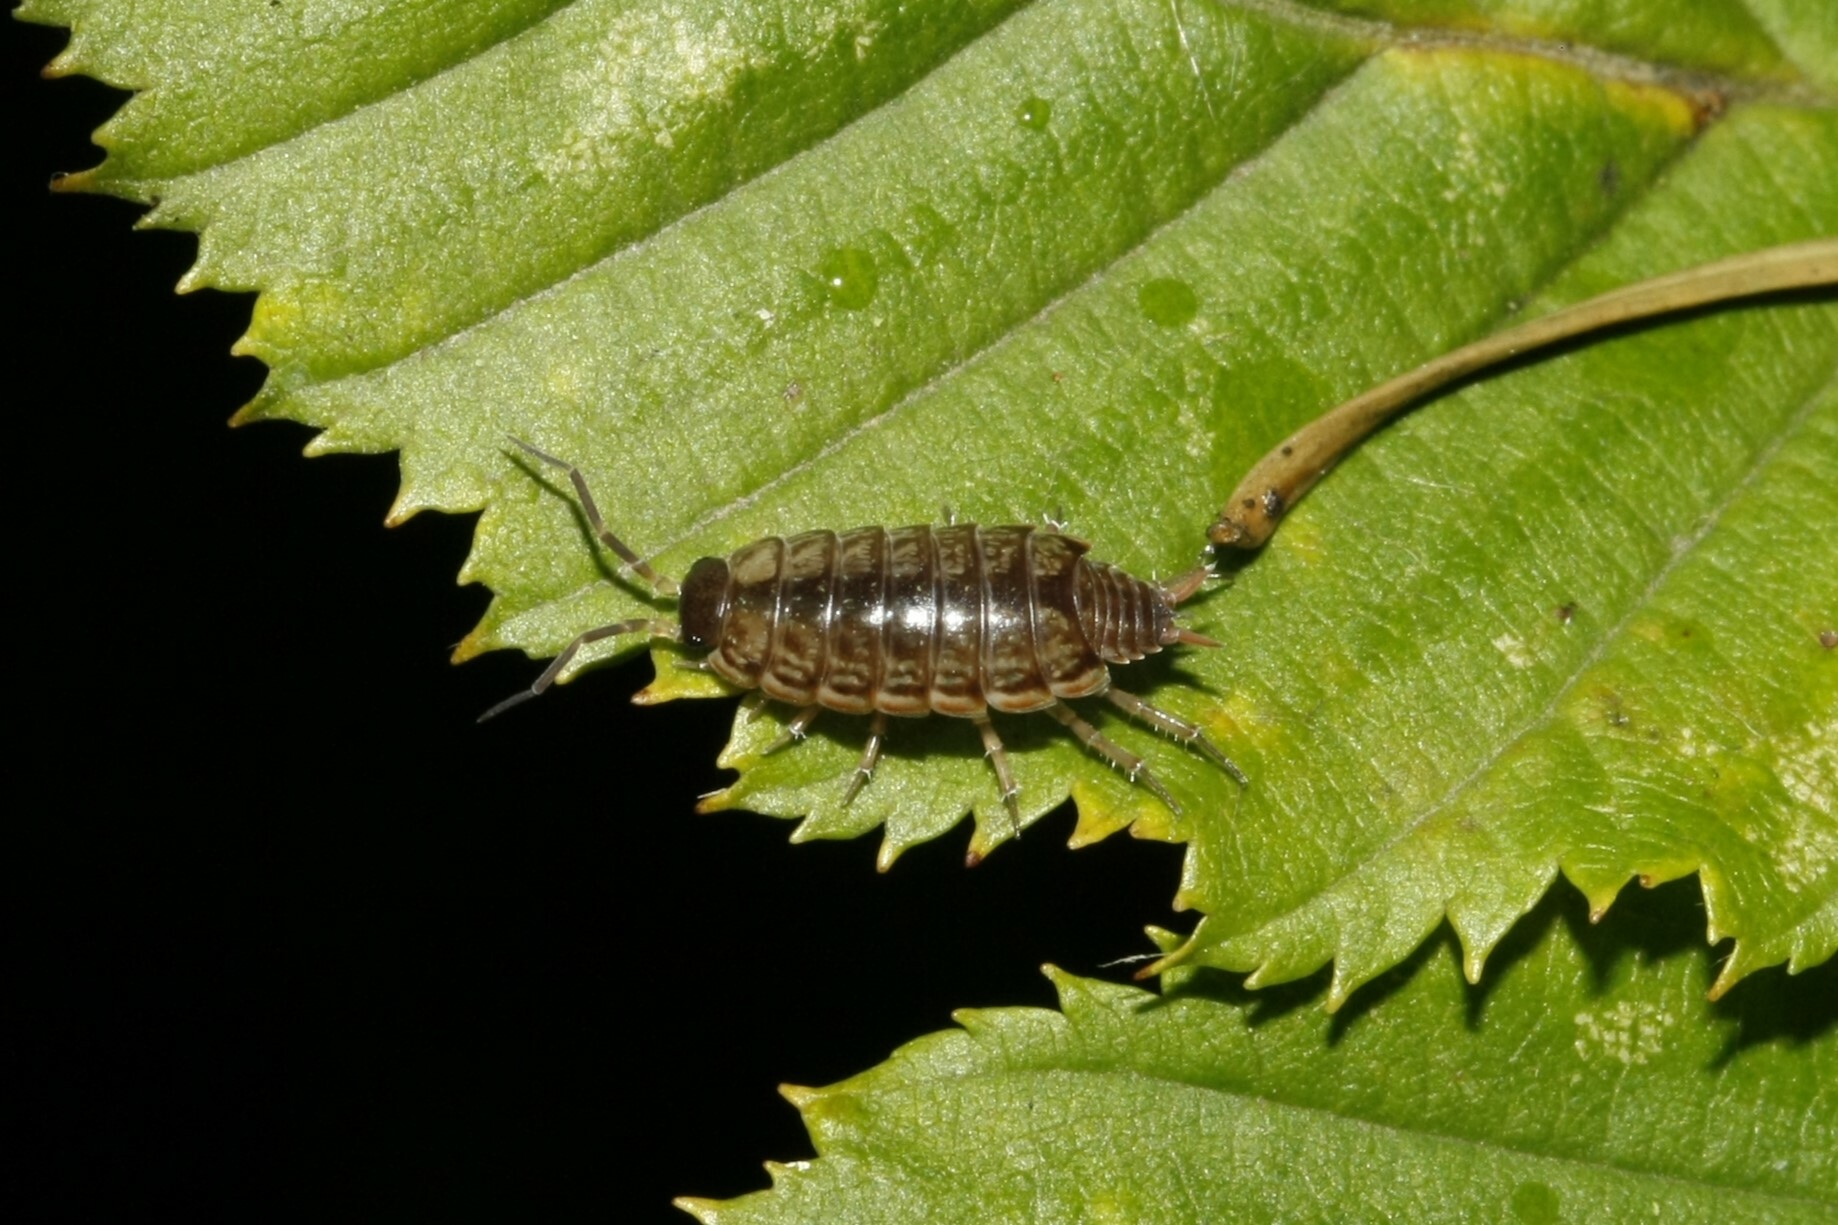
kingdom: Animalia
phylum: Arthropoda
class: Malacostraca
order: Isopoda
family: Philosciidae
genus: Philoscia
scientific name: Philoscia muscorum
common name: Common striped woodlouse
